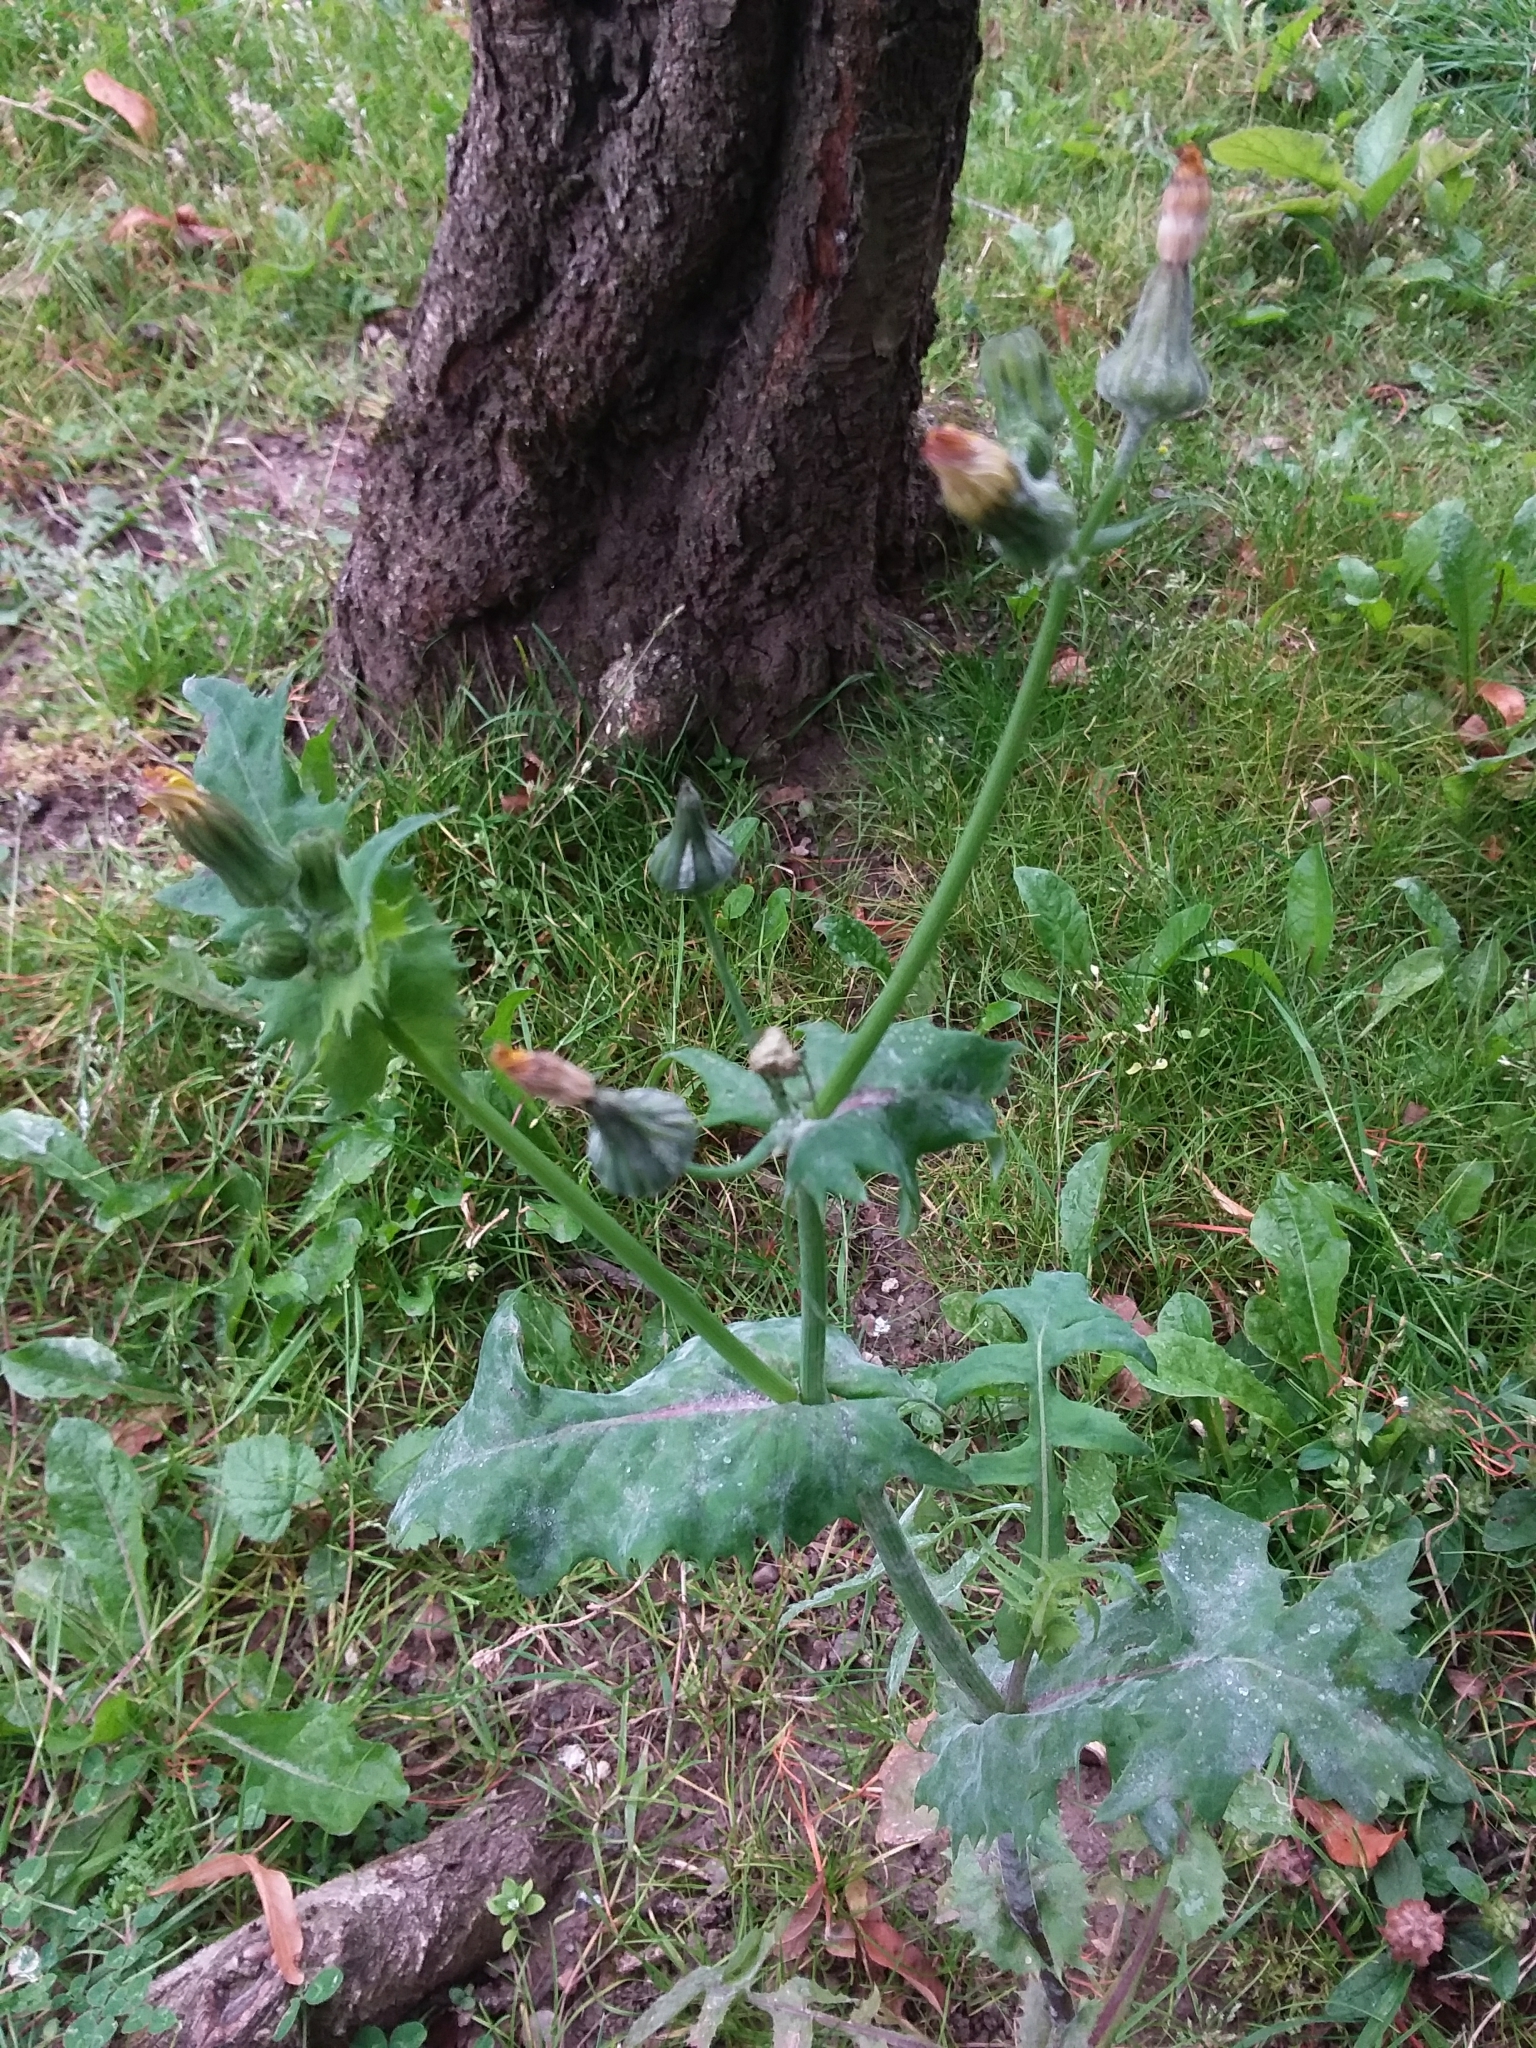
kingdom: Plantae
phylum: Tracheophyta
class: Magnoliopsida
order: Asterales
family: Asteraceae
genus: Sonchus
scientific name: Sonchus oleraceus
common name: Common sowthistle
